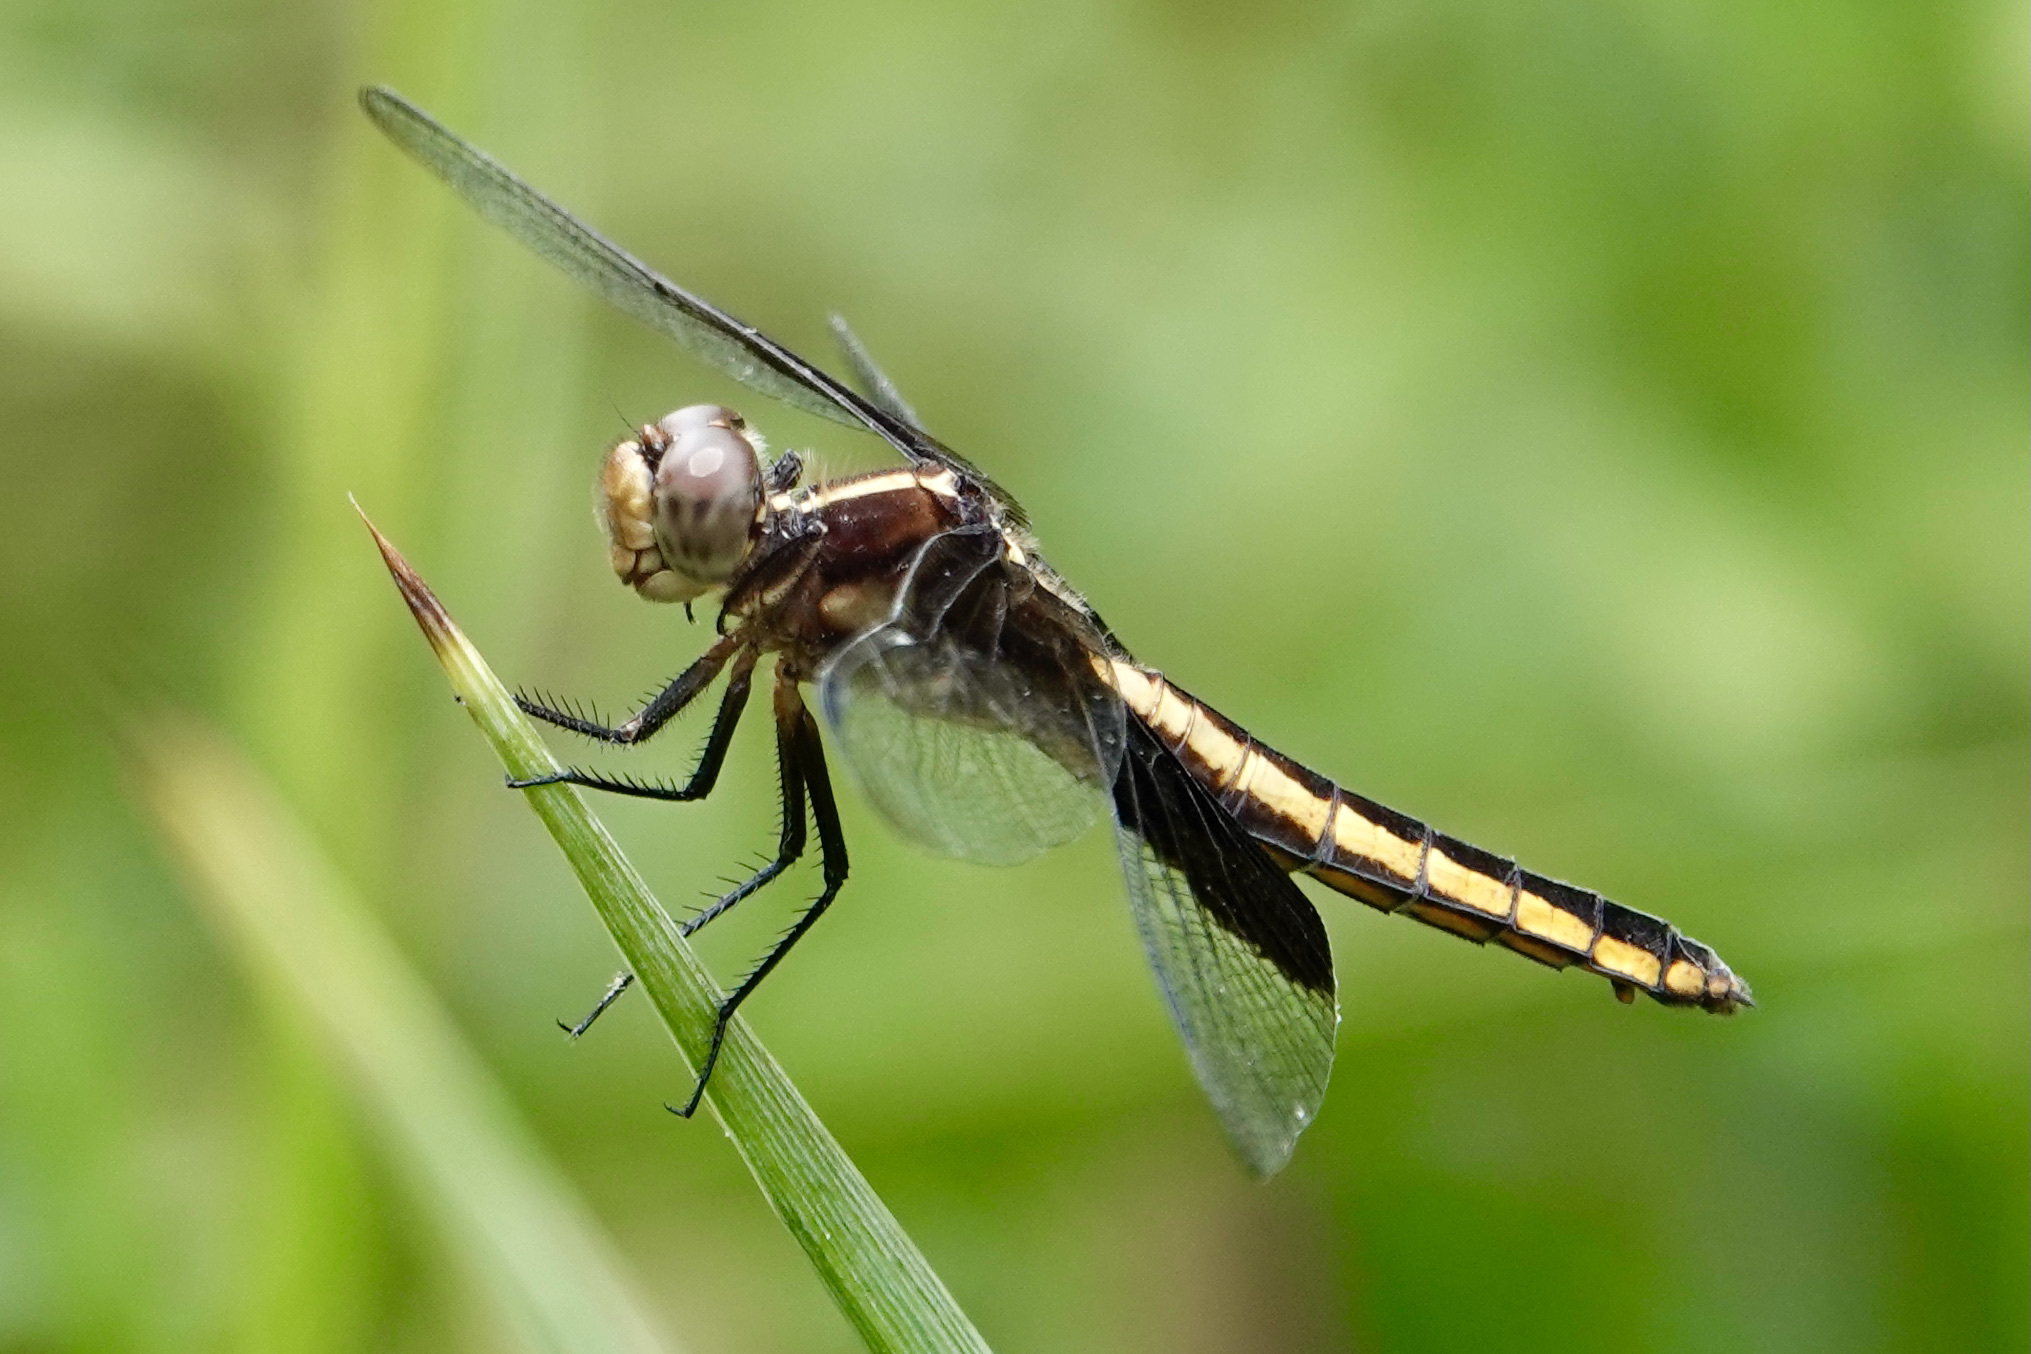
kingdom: Animalia
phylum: Arthropoda
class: Insecta
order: Odonata
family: Libellulidae
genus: Libellula
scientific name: Libellula luctuosa
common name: Widow skimmer
